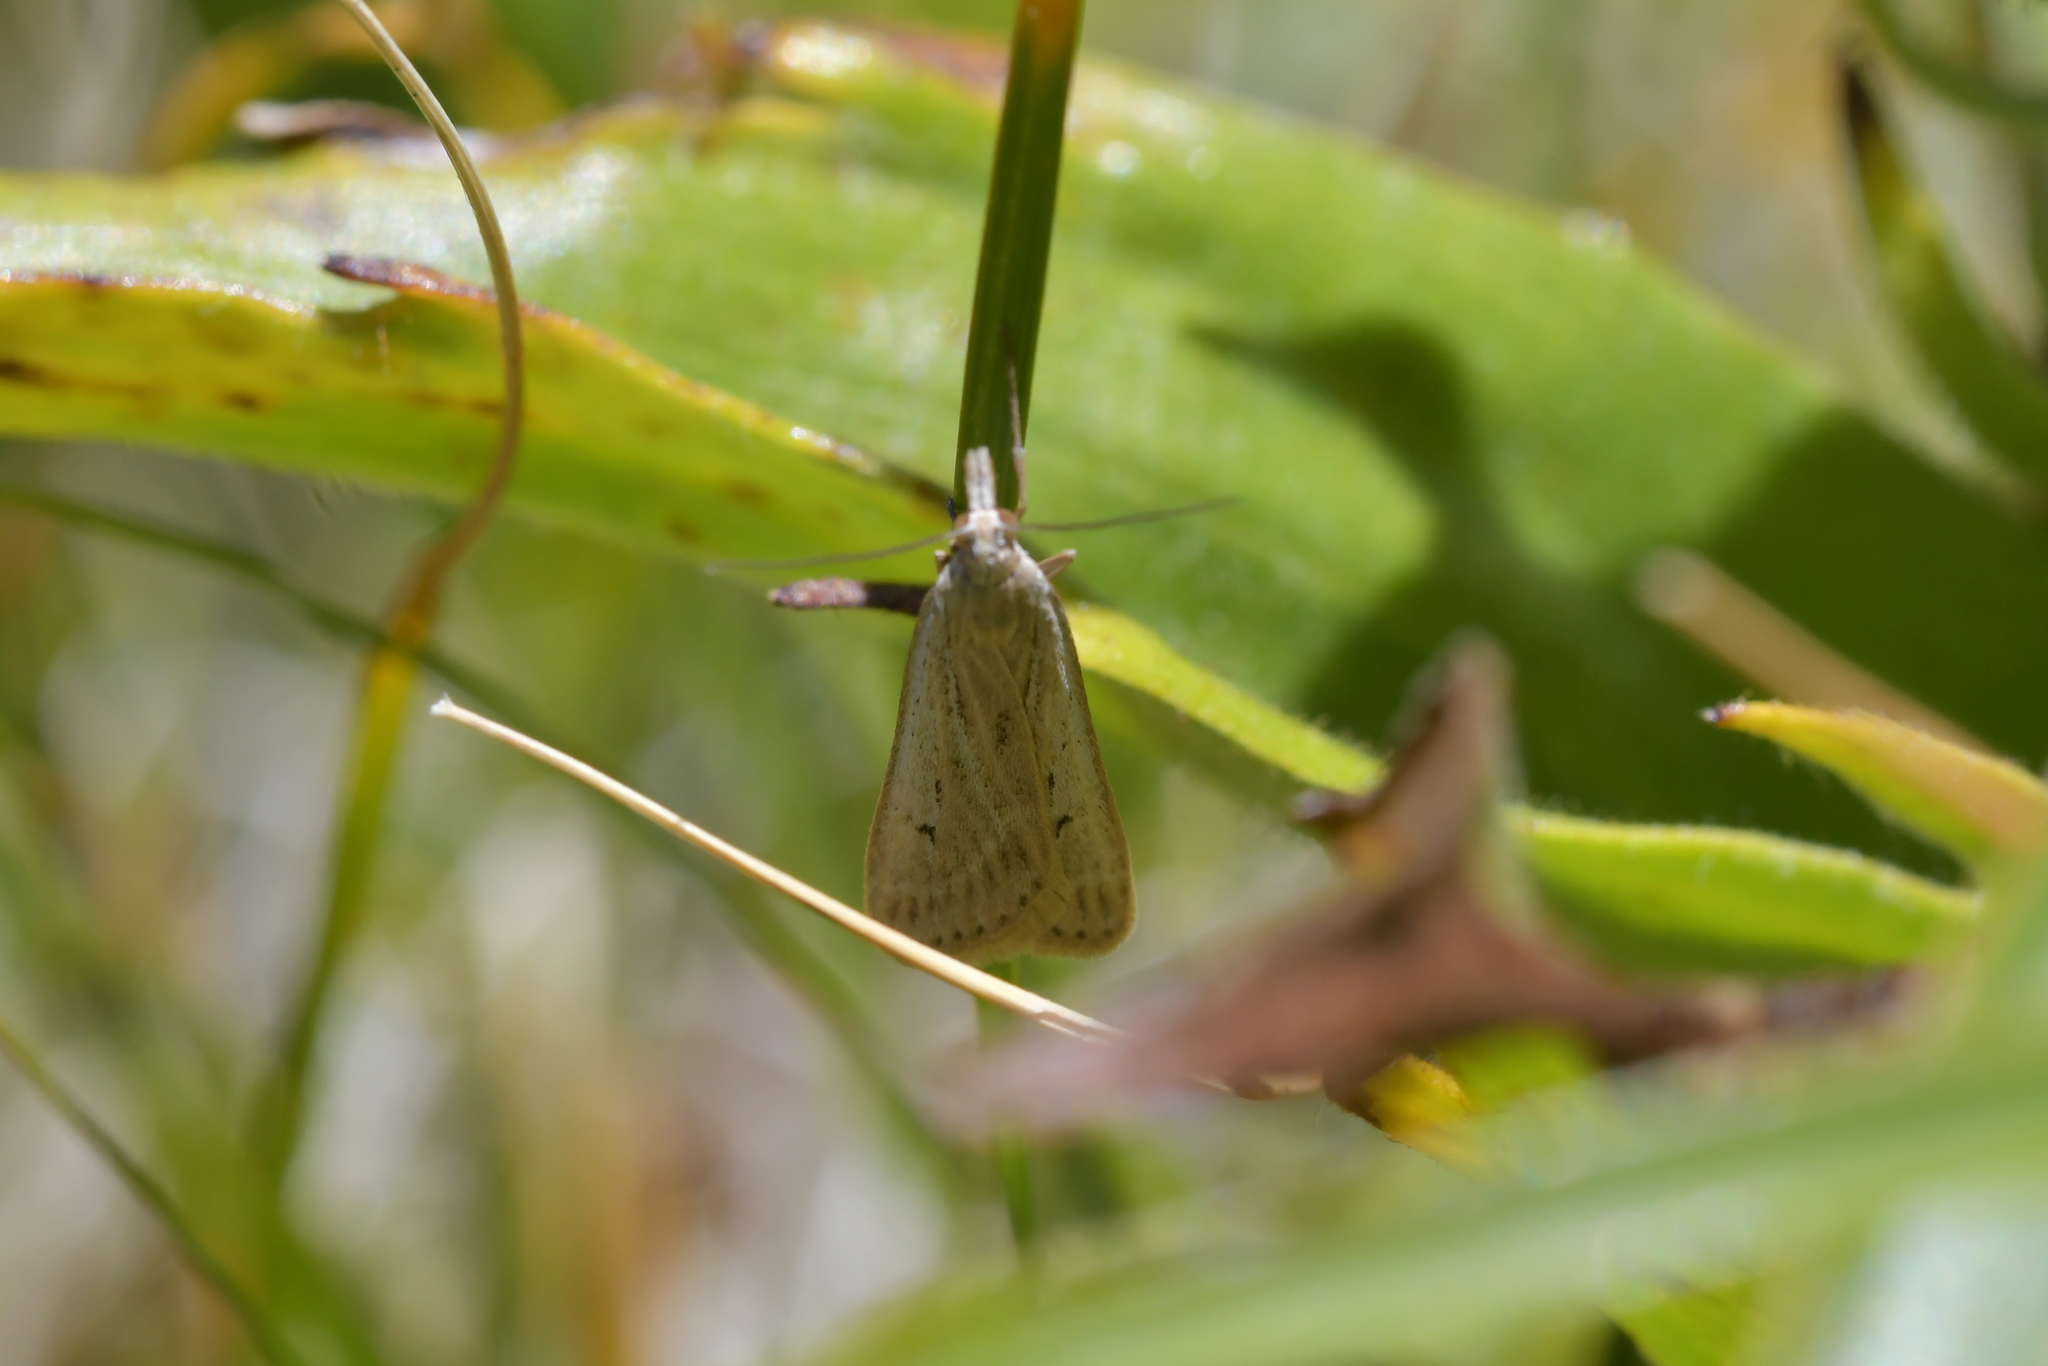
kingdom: Animalia
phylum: Arthropoda
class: Insecta
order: Lepidoptera
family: Crambidae
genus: Eudonia
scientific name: Eudonia sabulosella
